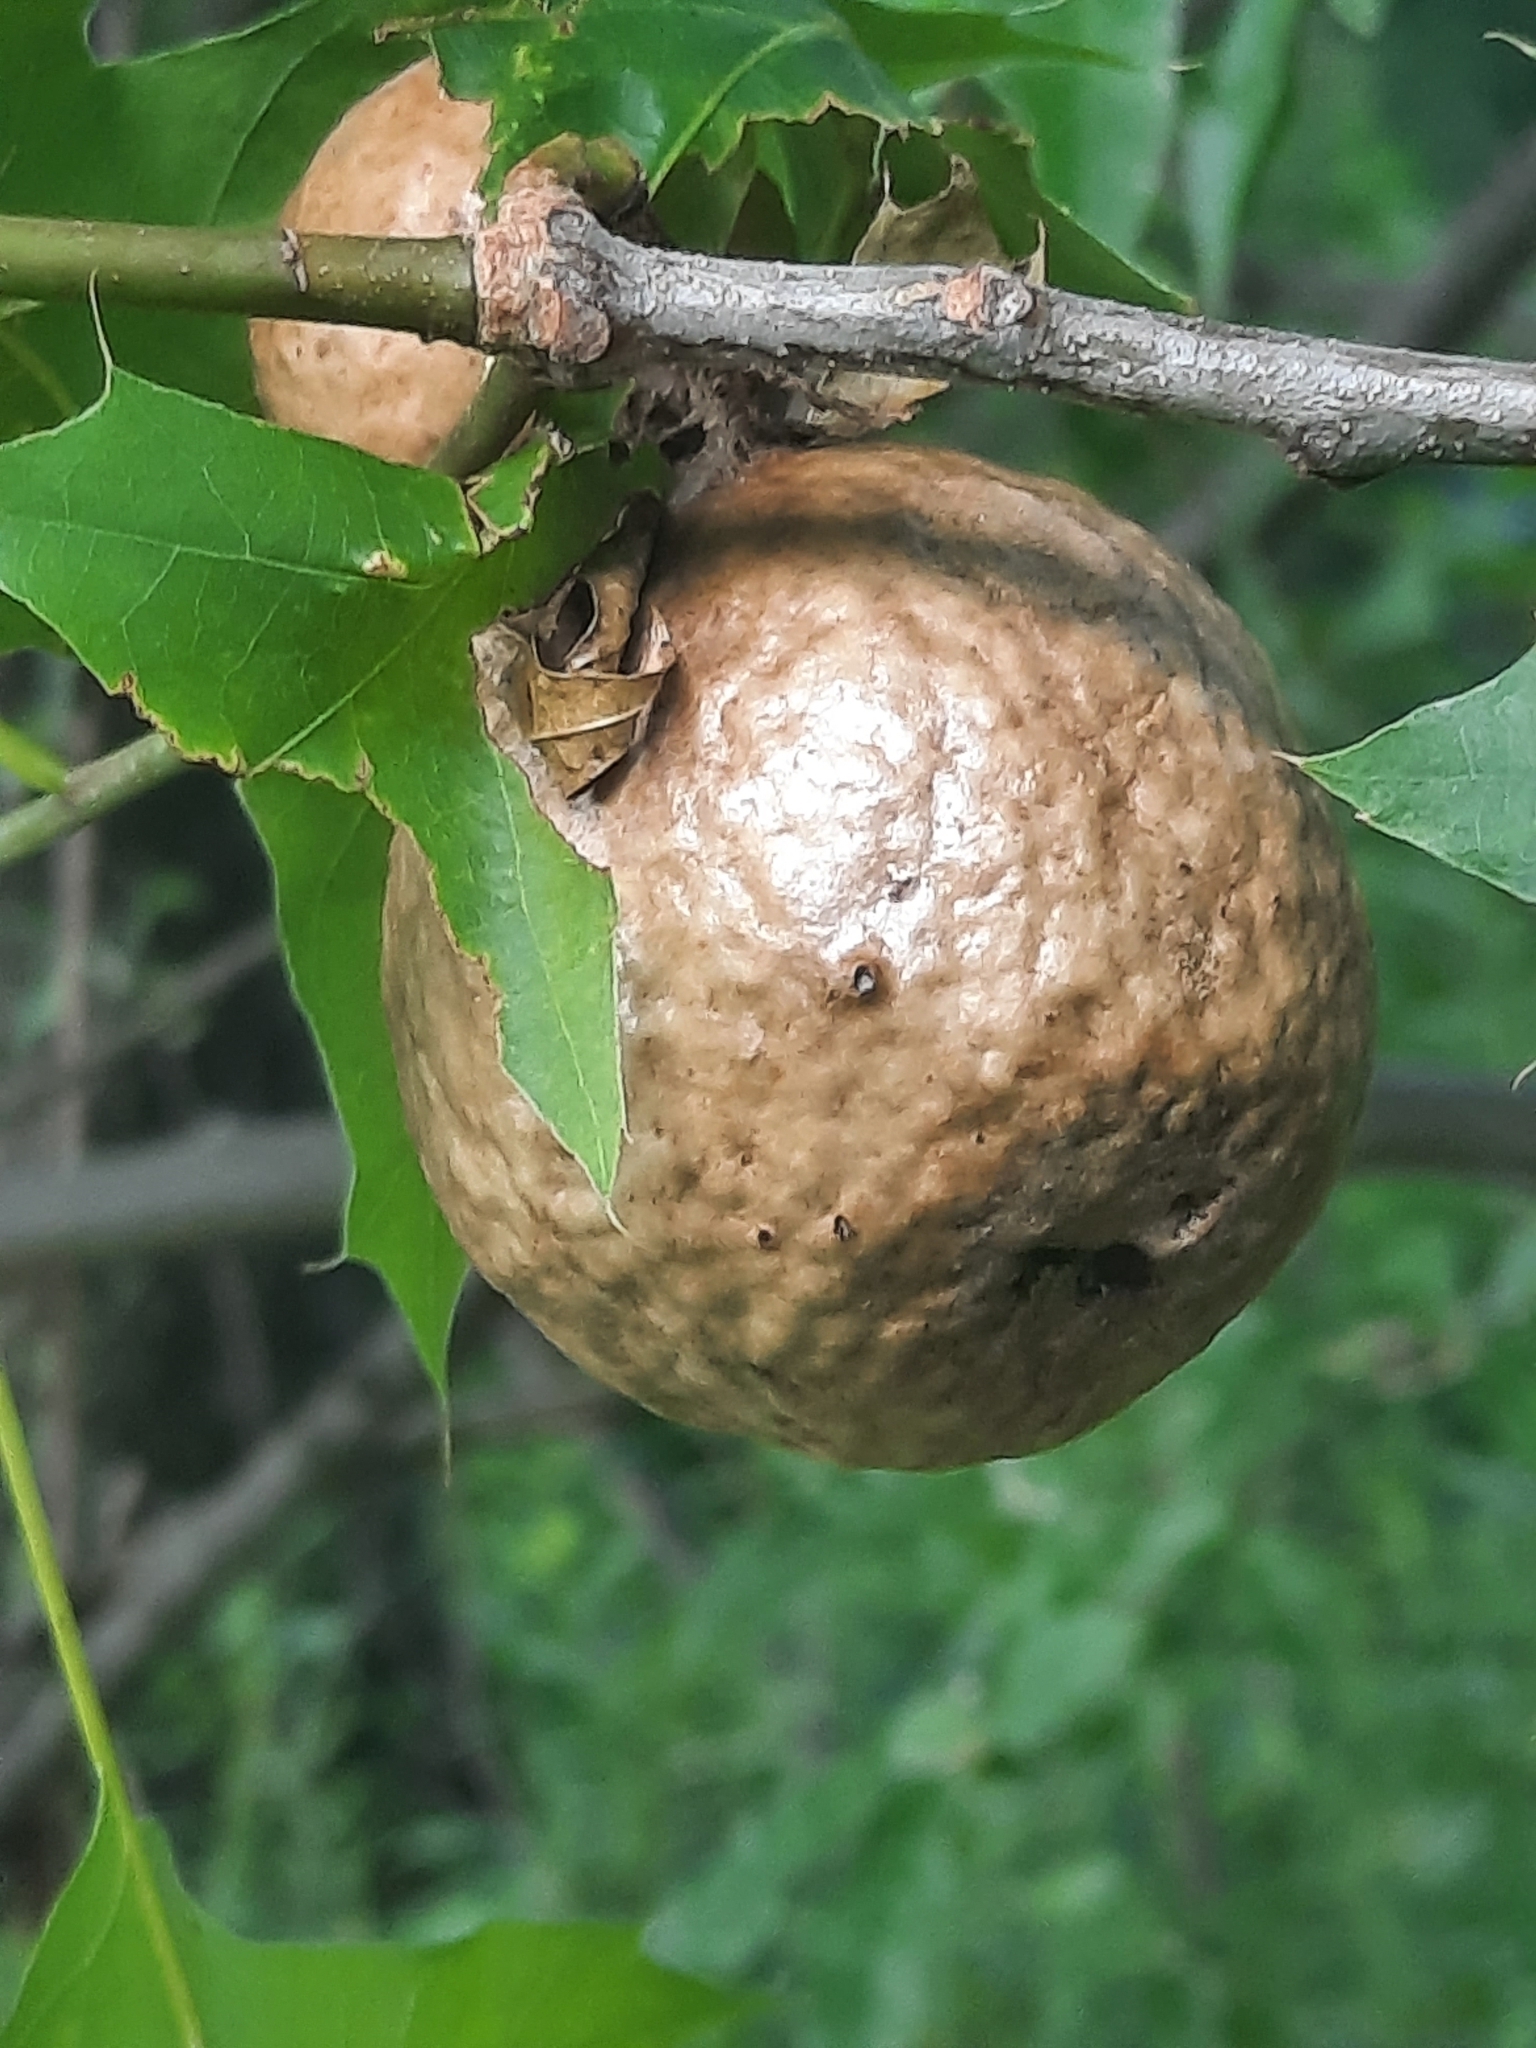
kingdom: Animalia
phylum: Arthropoda
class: Insecta
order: Hymenoptera
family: Cynipidae
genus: Amphibolips
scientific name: Amphibolips
